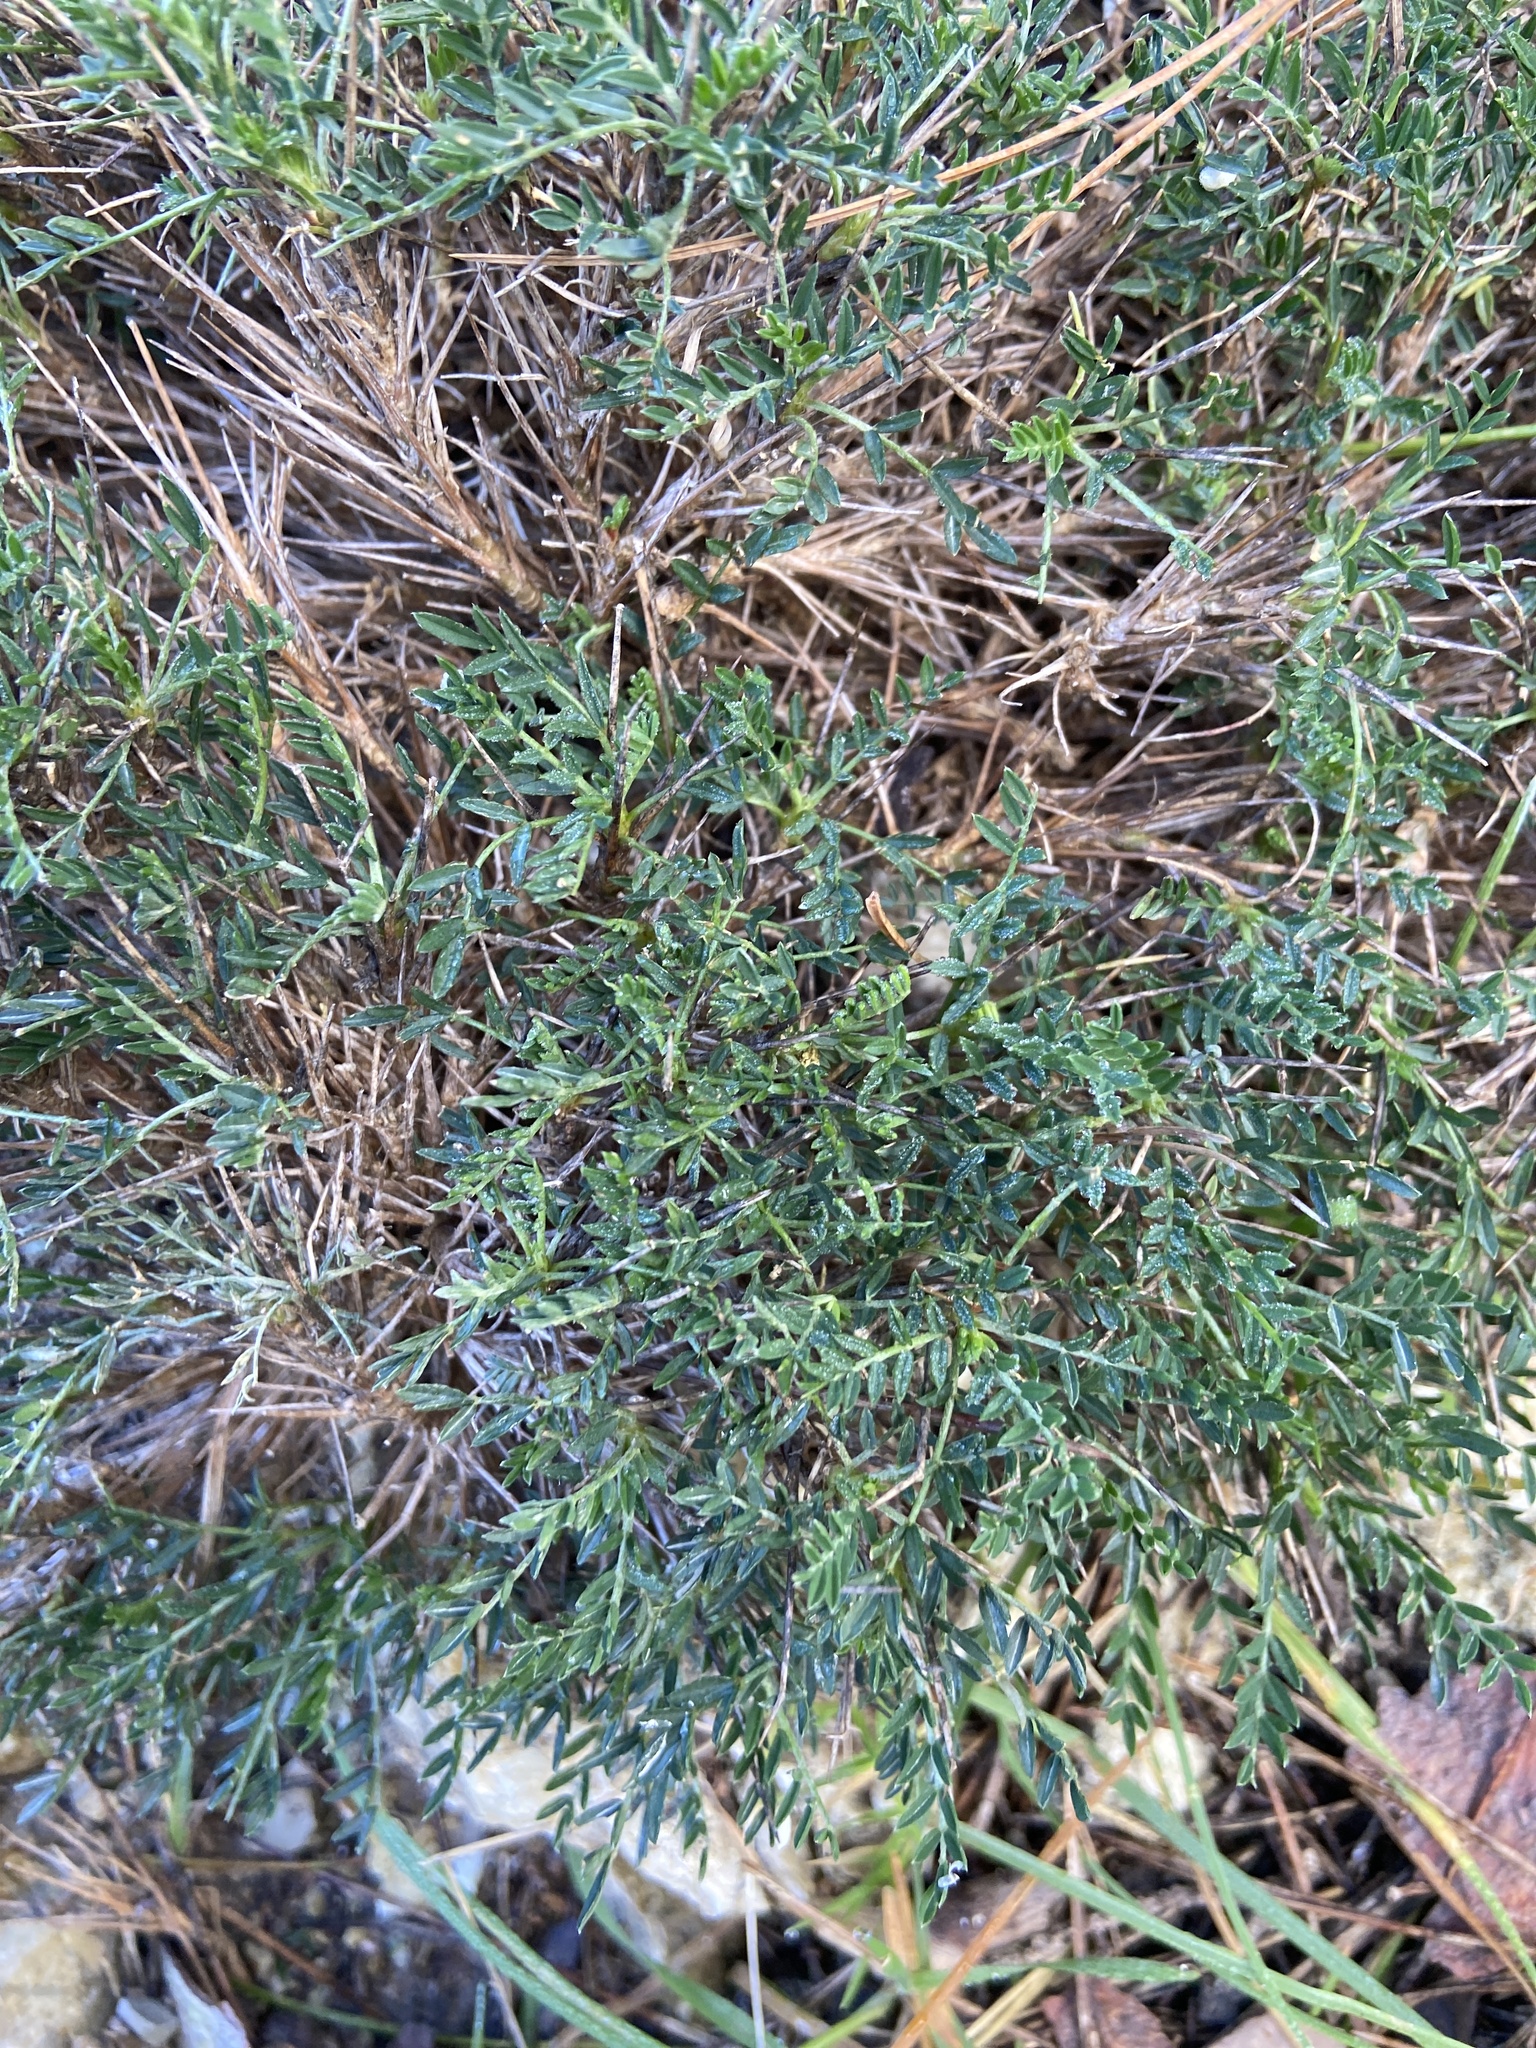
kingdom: Plantae
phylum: Tracheophyta
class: Magnoliopsida
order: Fabales
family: Fabaceae
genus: Astragalus
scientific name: Astragalus balearicus
